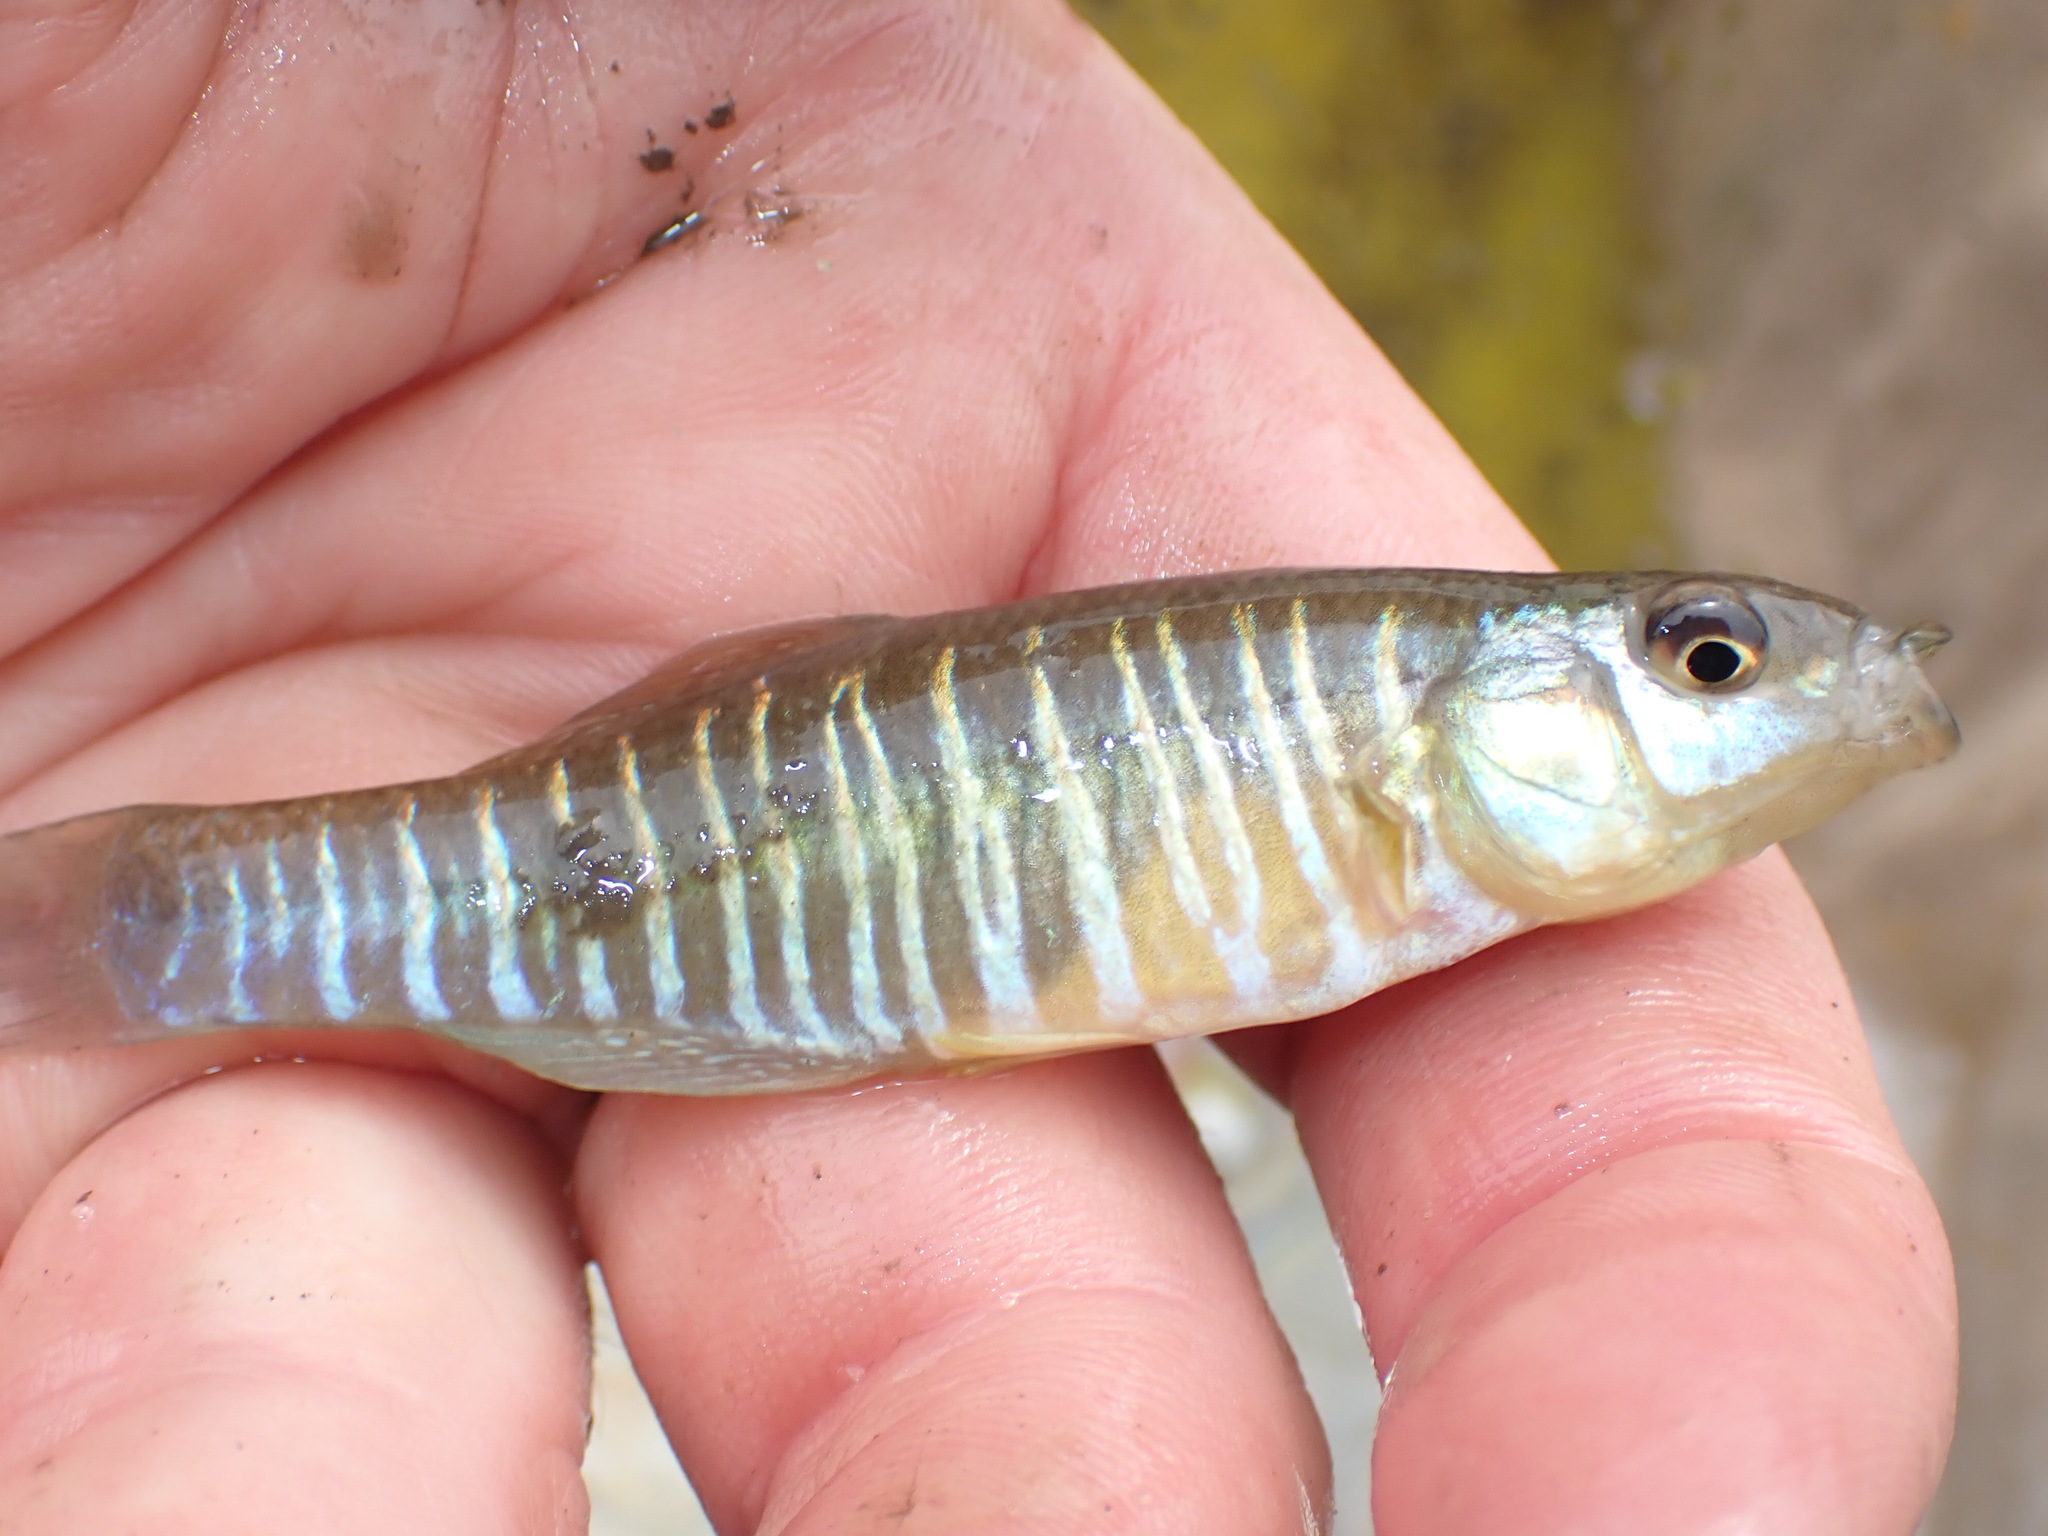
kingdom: Animalia
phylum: Chordata
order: Cyprinodontiformes
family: Fundulidae
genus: Fundulus
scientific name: Fundulus diaphanus
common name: Banded killifish
